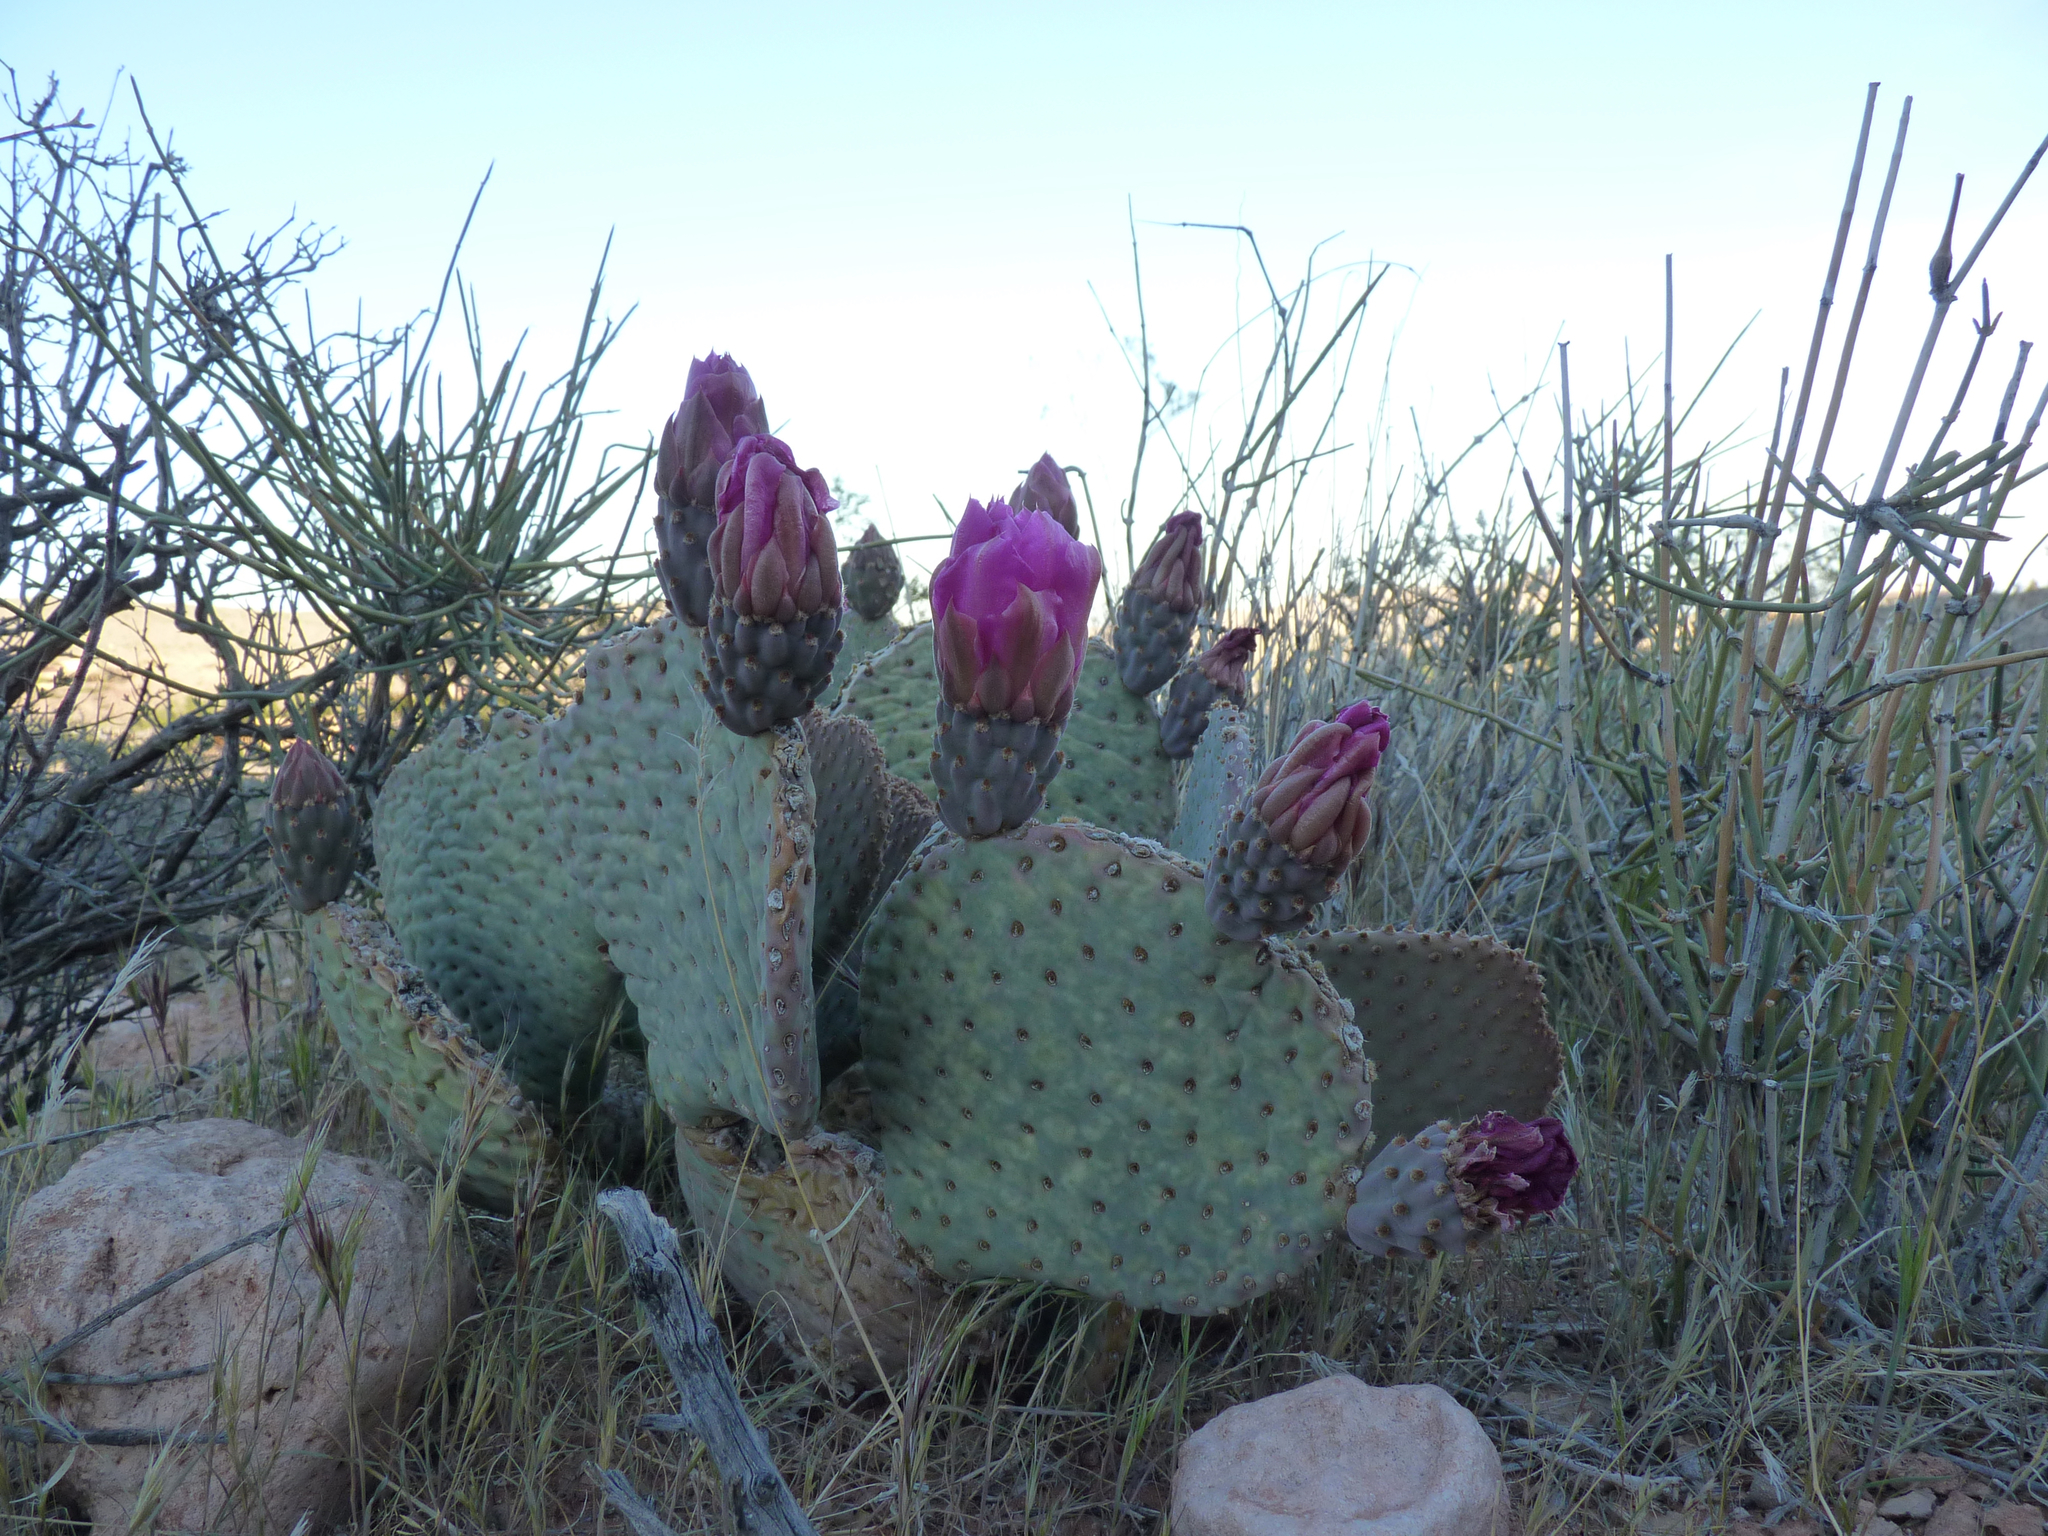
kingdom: Plantae
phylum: Tracheophyta
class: Magnoliopsida
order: Caryophyllales
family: Cactaceae
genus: Opuntia
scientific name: Opuntia basilaris
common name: Beavertail prickly-pear
